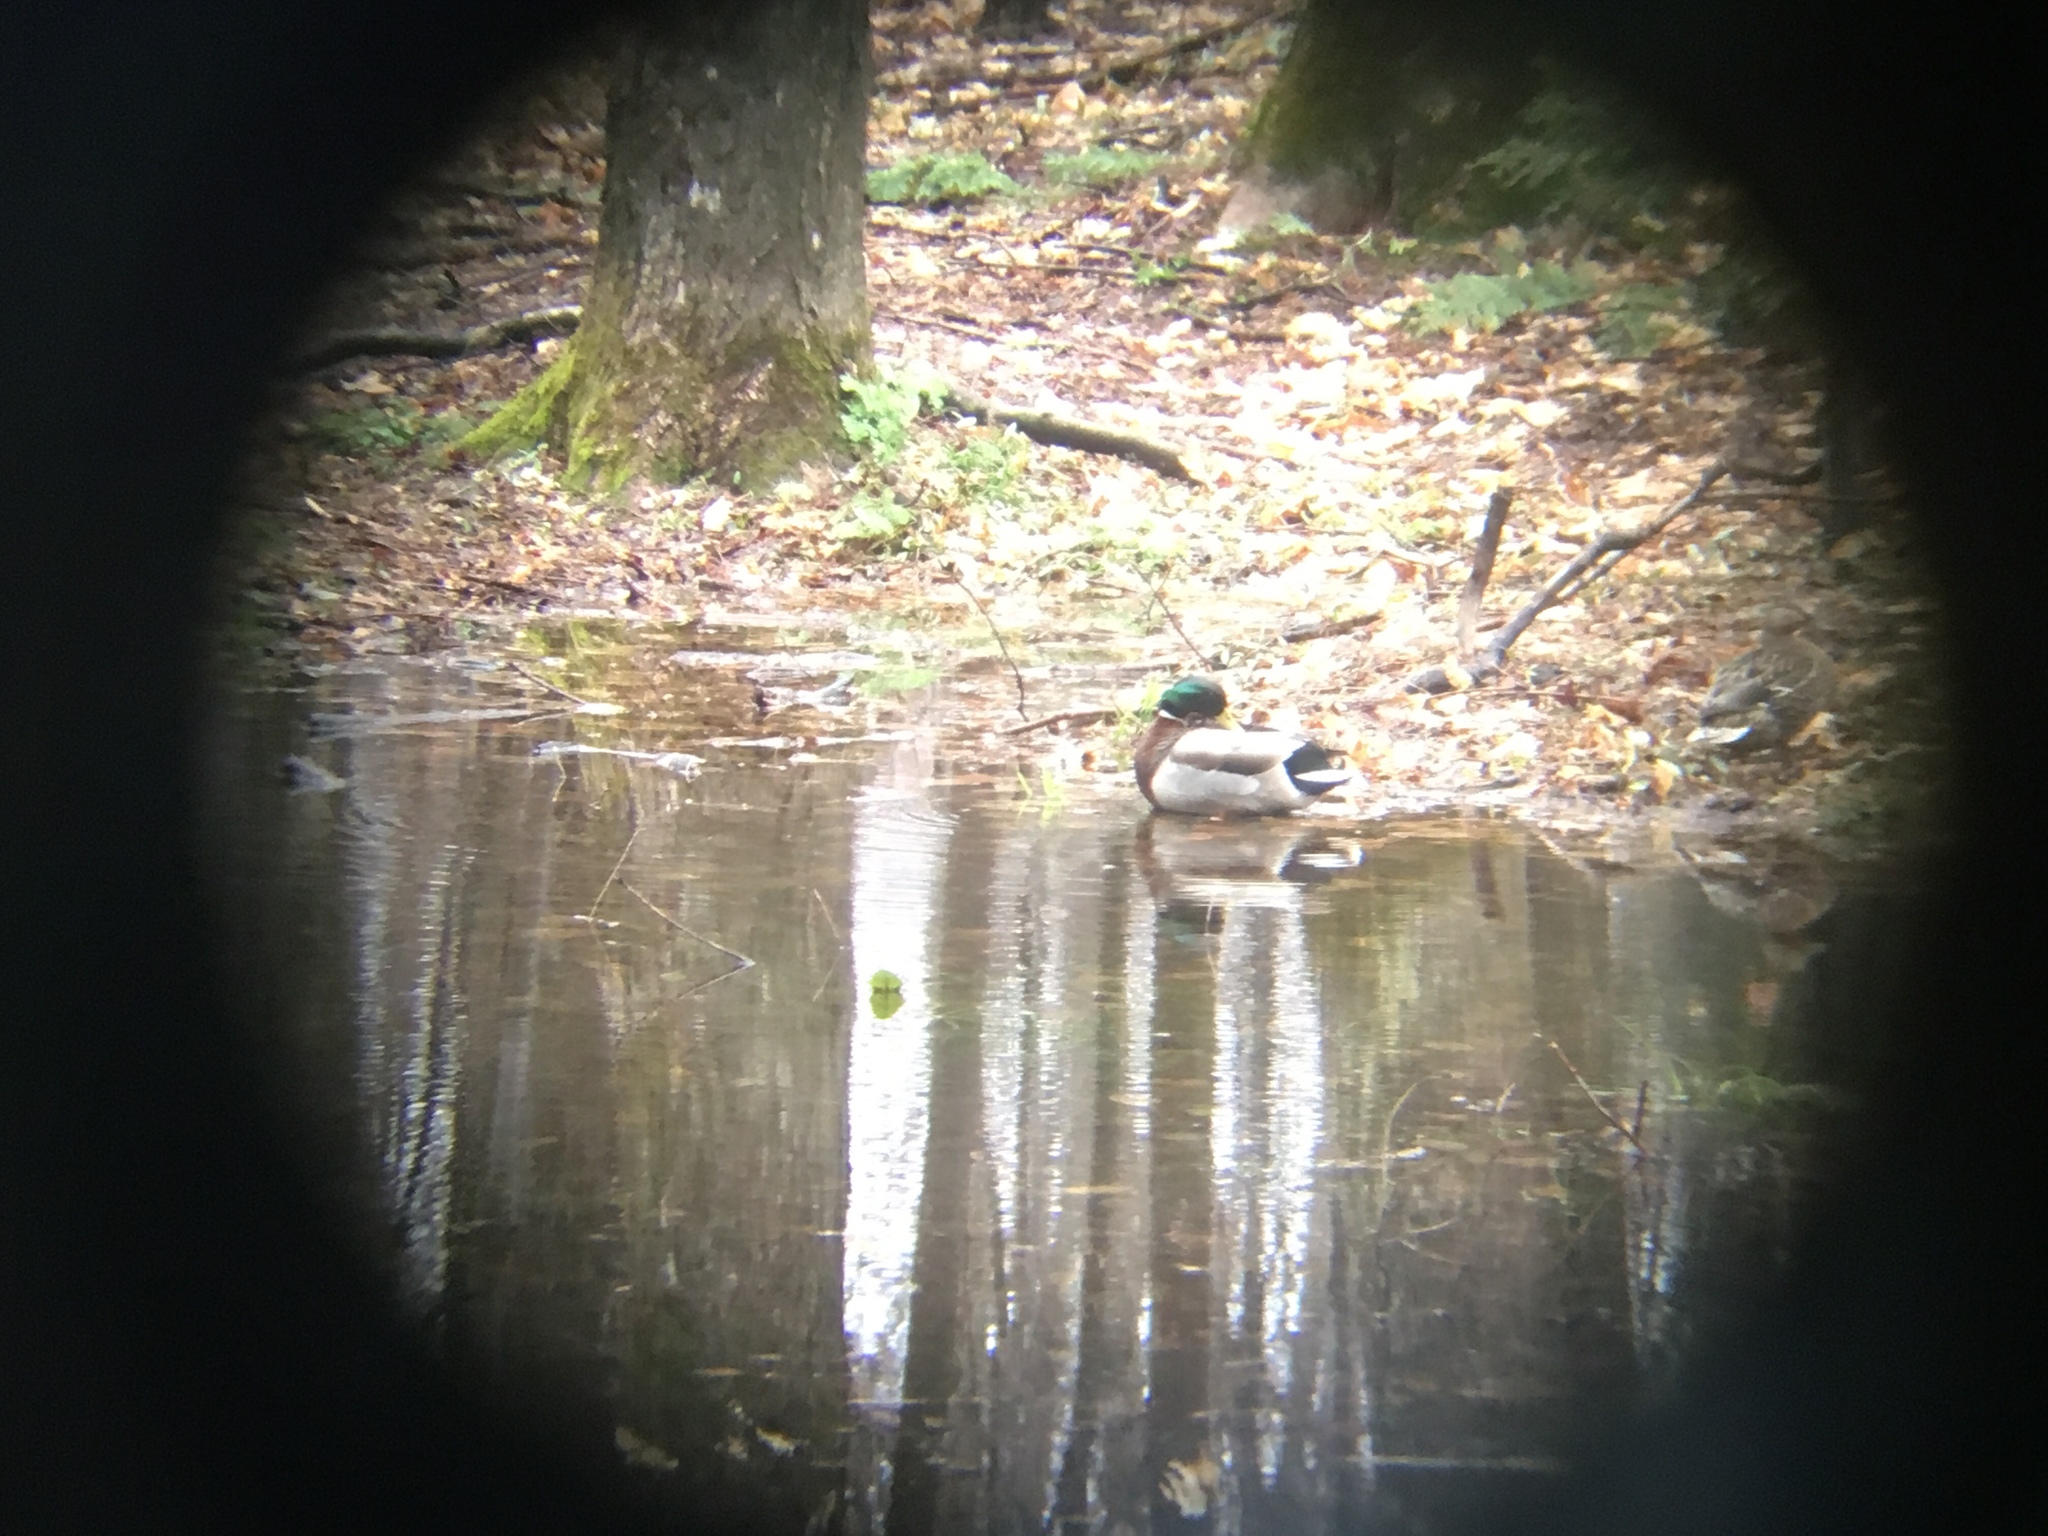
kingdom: Animalia
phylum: Chordata
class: Aves
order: Anseriformes
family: Anatidae
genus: Anas
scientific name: Anas platyrhynchos
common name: Mallard
